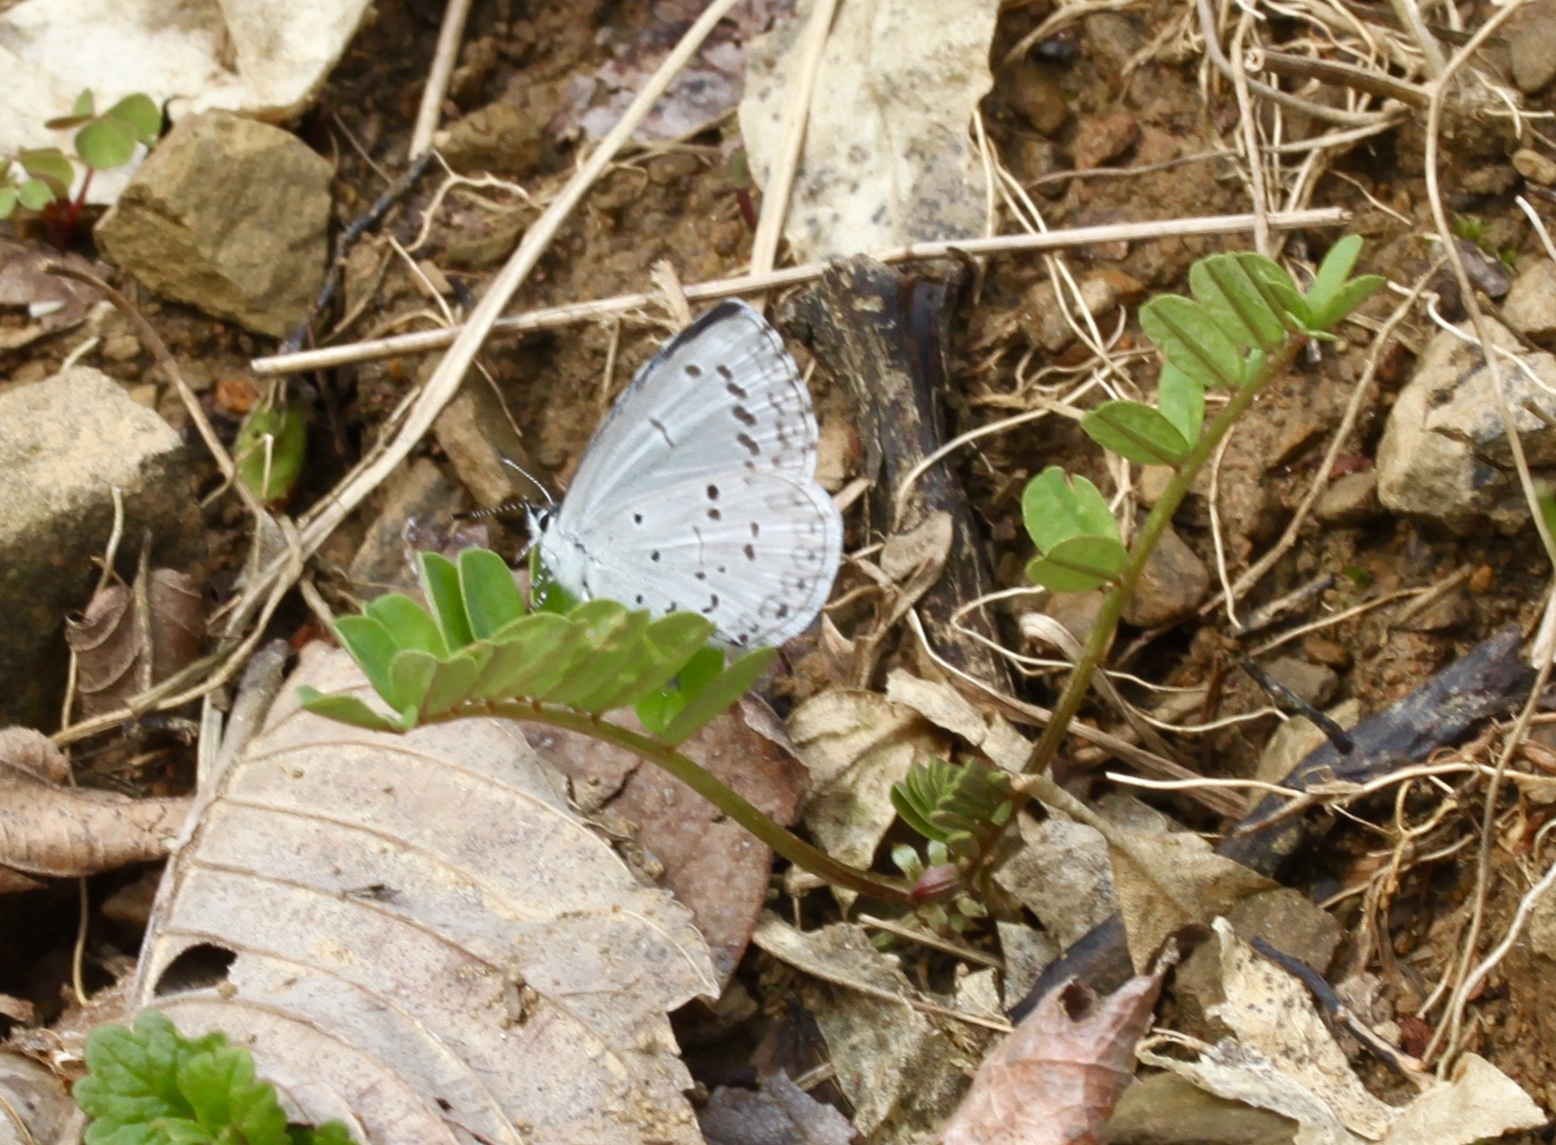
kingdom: Animalia
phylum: Arthropoda
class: Insecta
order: Lepidoptera
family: Lycaenidae
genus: Celastrina
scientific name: Celastrina ladon
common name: Spring azure
